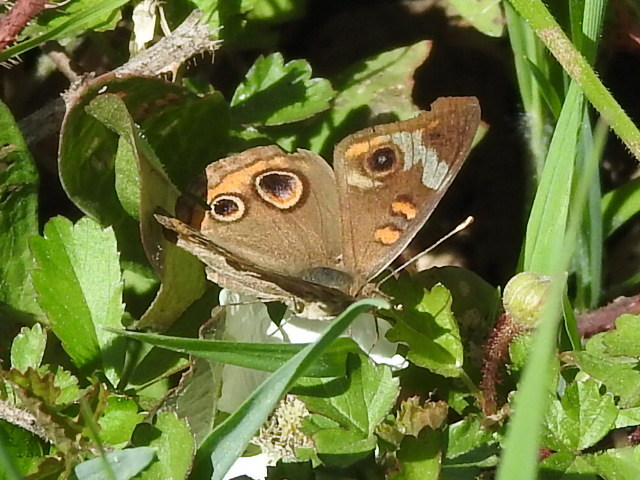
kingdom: Animalia
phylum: Arthropoda
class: Insecta
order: Lepidoptera
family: Nymphalidae
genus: Junonia
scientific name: Junonia coenia
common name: Common buckeye
